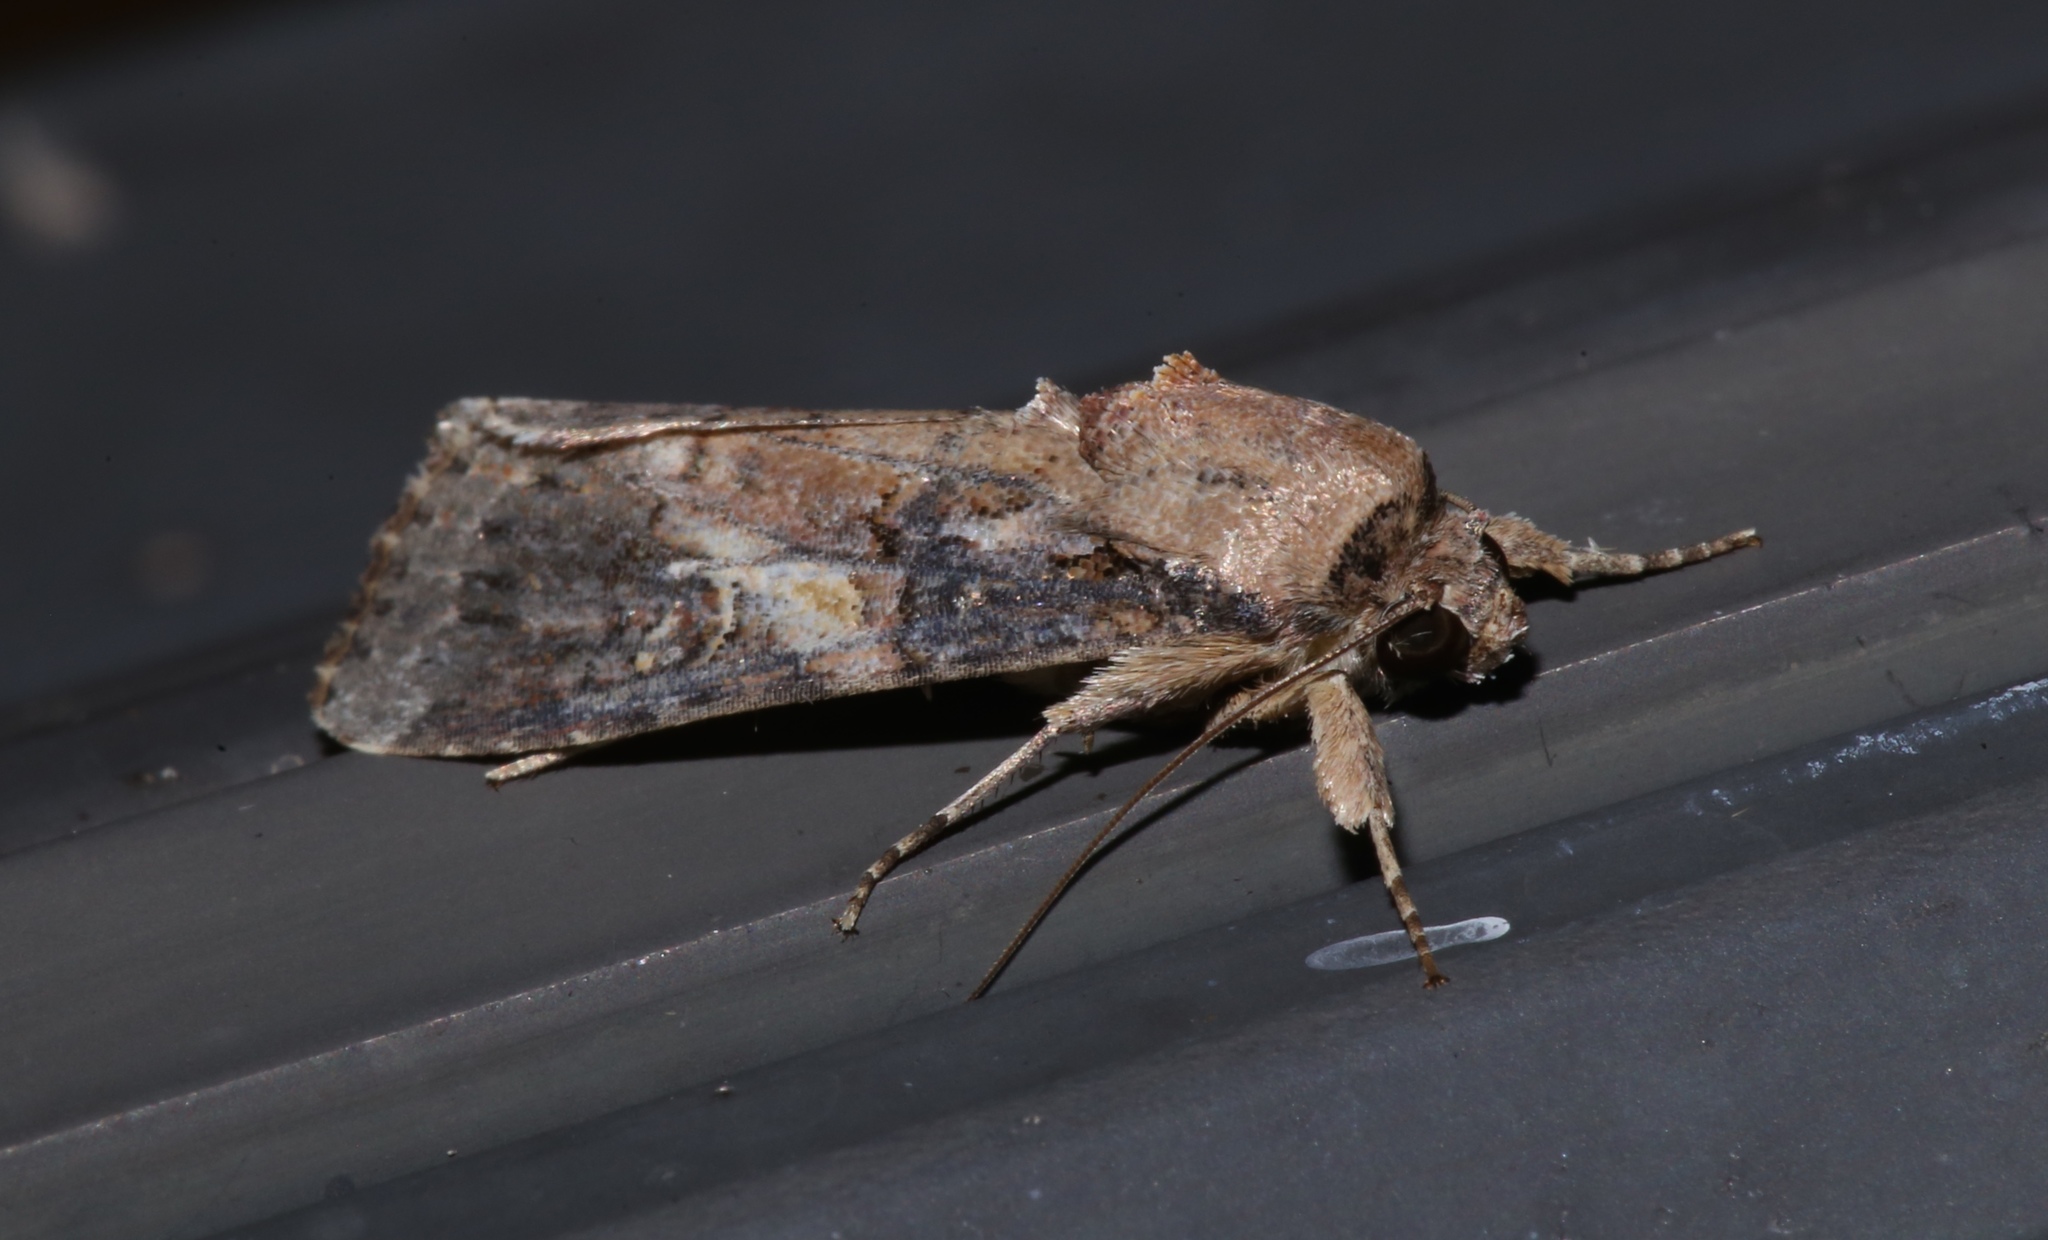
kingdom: Animalia
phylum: Arthropoda
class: Insecta
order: Lepidoptera
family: Noctuidae
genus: Spodoptera
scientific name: Spodoptera frugiperda
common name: Fall armyworm
